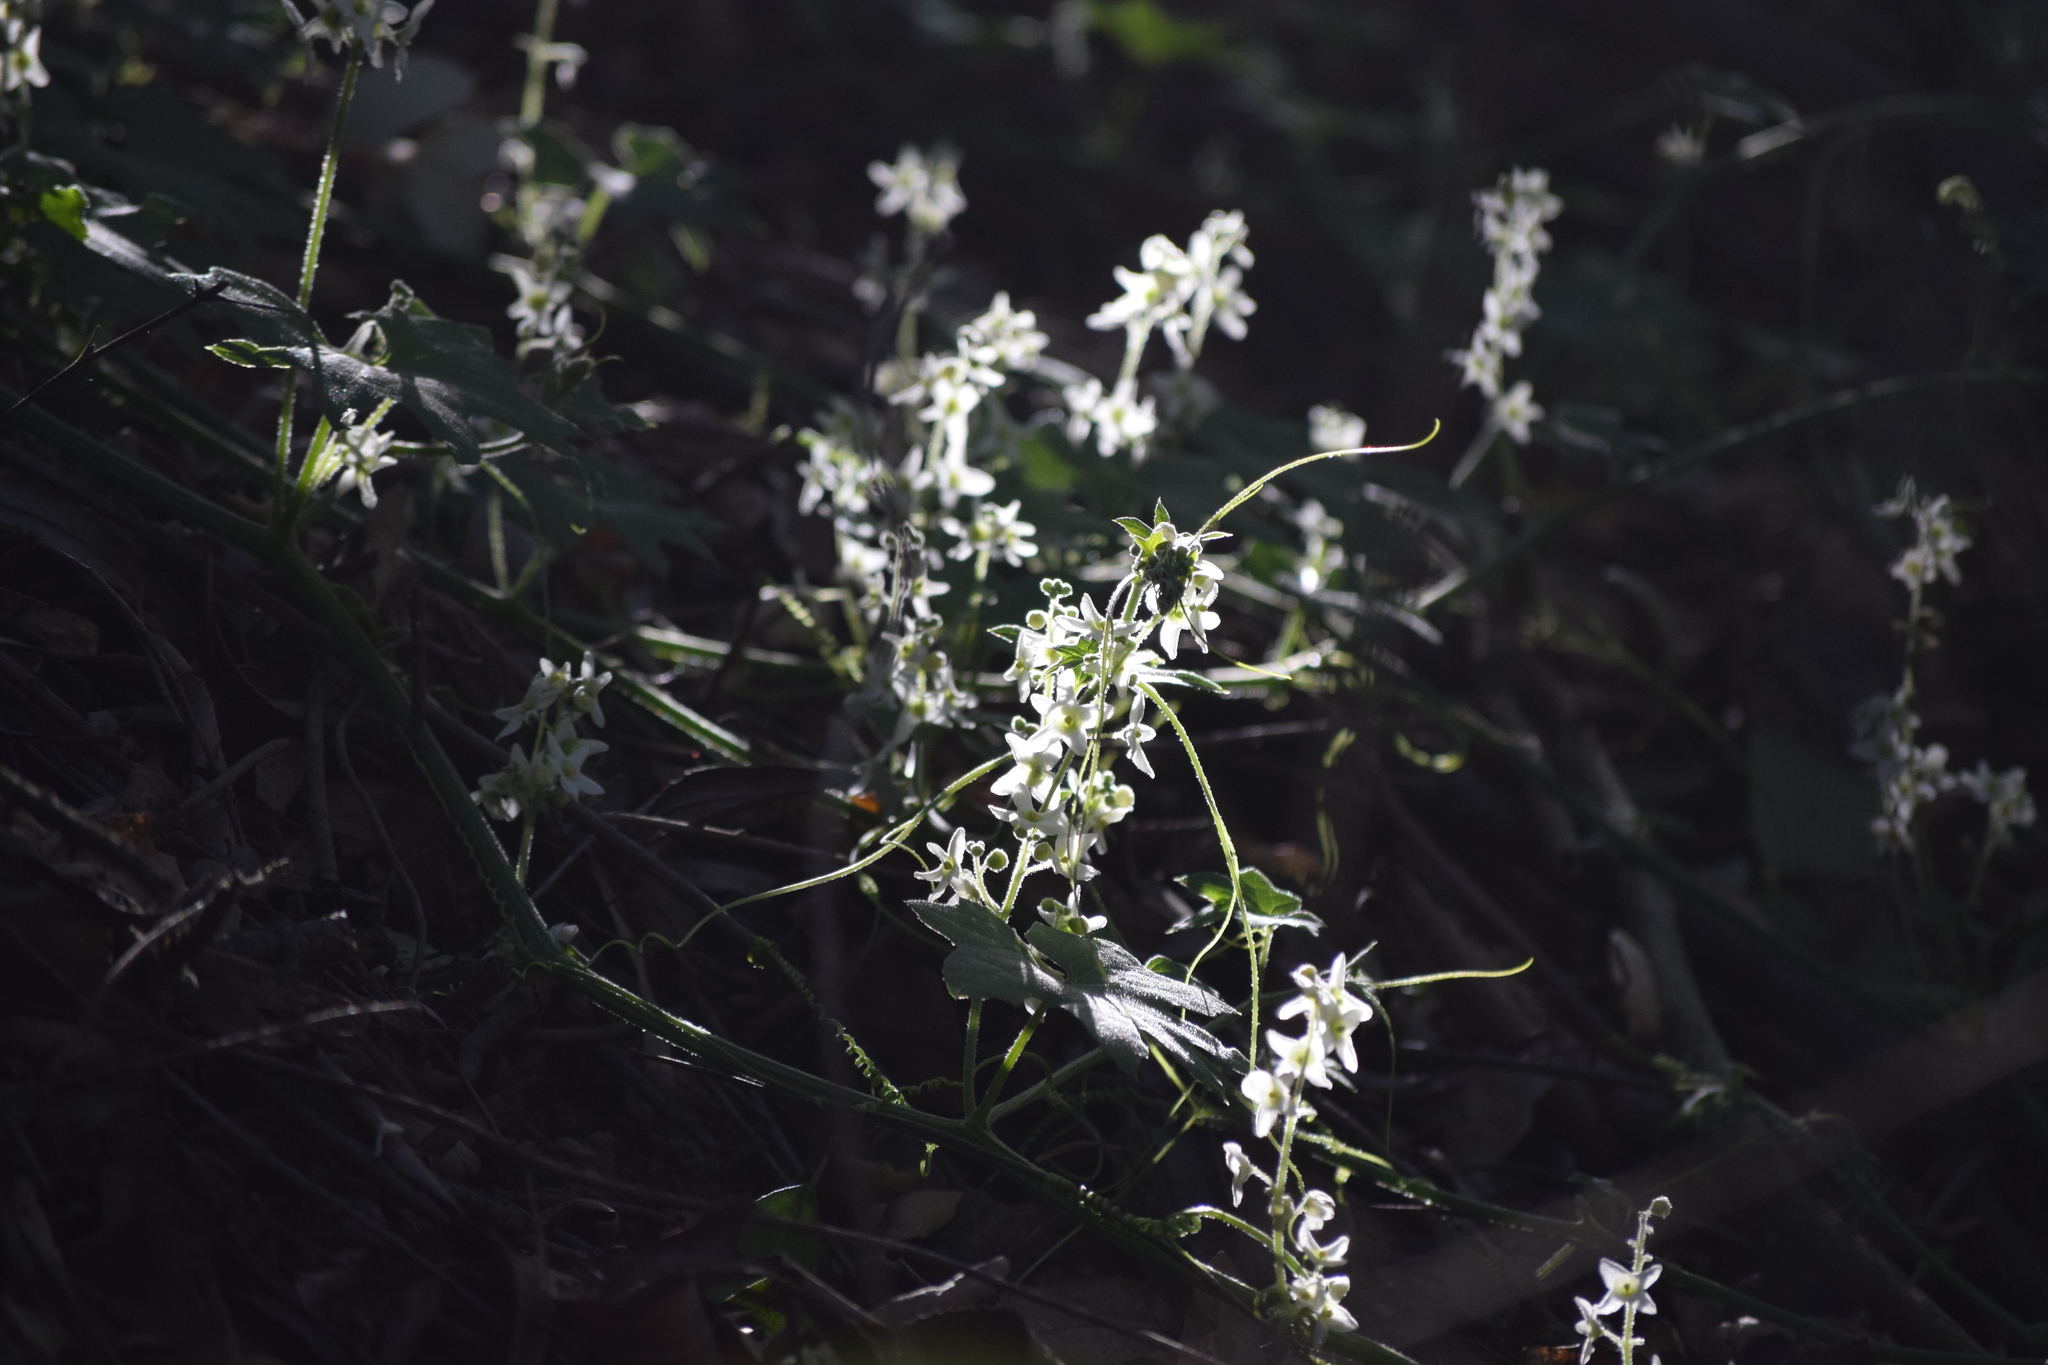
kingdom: Plantae
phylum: Tracheophyta
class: Magnoliopsida
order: Cucurbitales
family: Cucurbitaceae
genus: Marah
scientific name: Marah macrocarpa
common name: Cucamonga manroot
